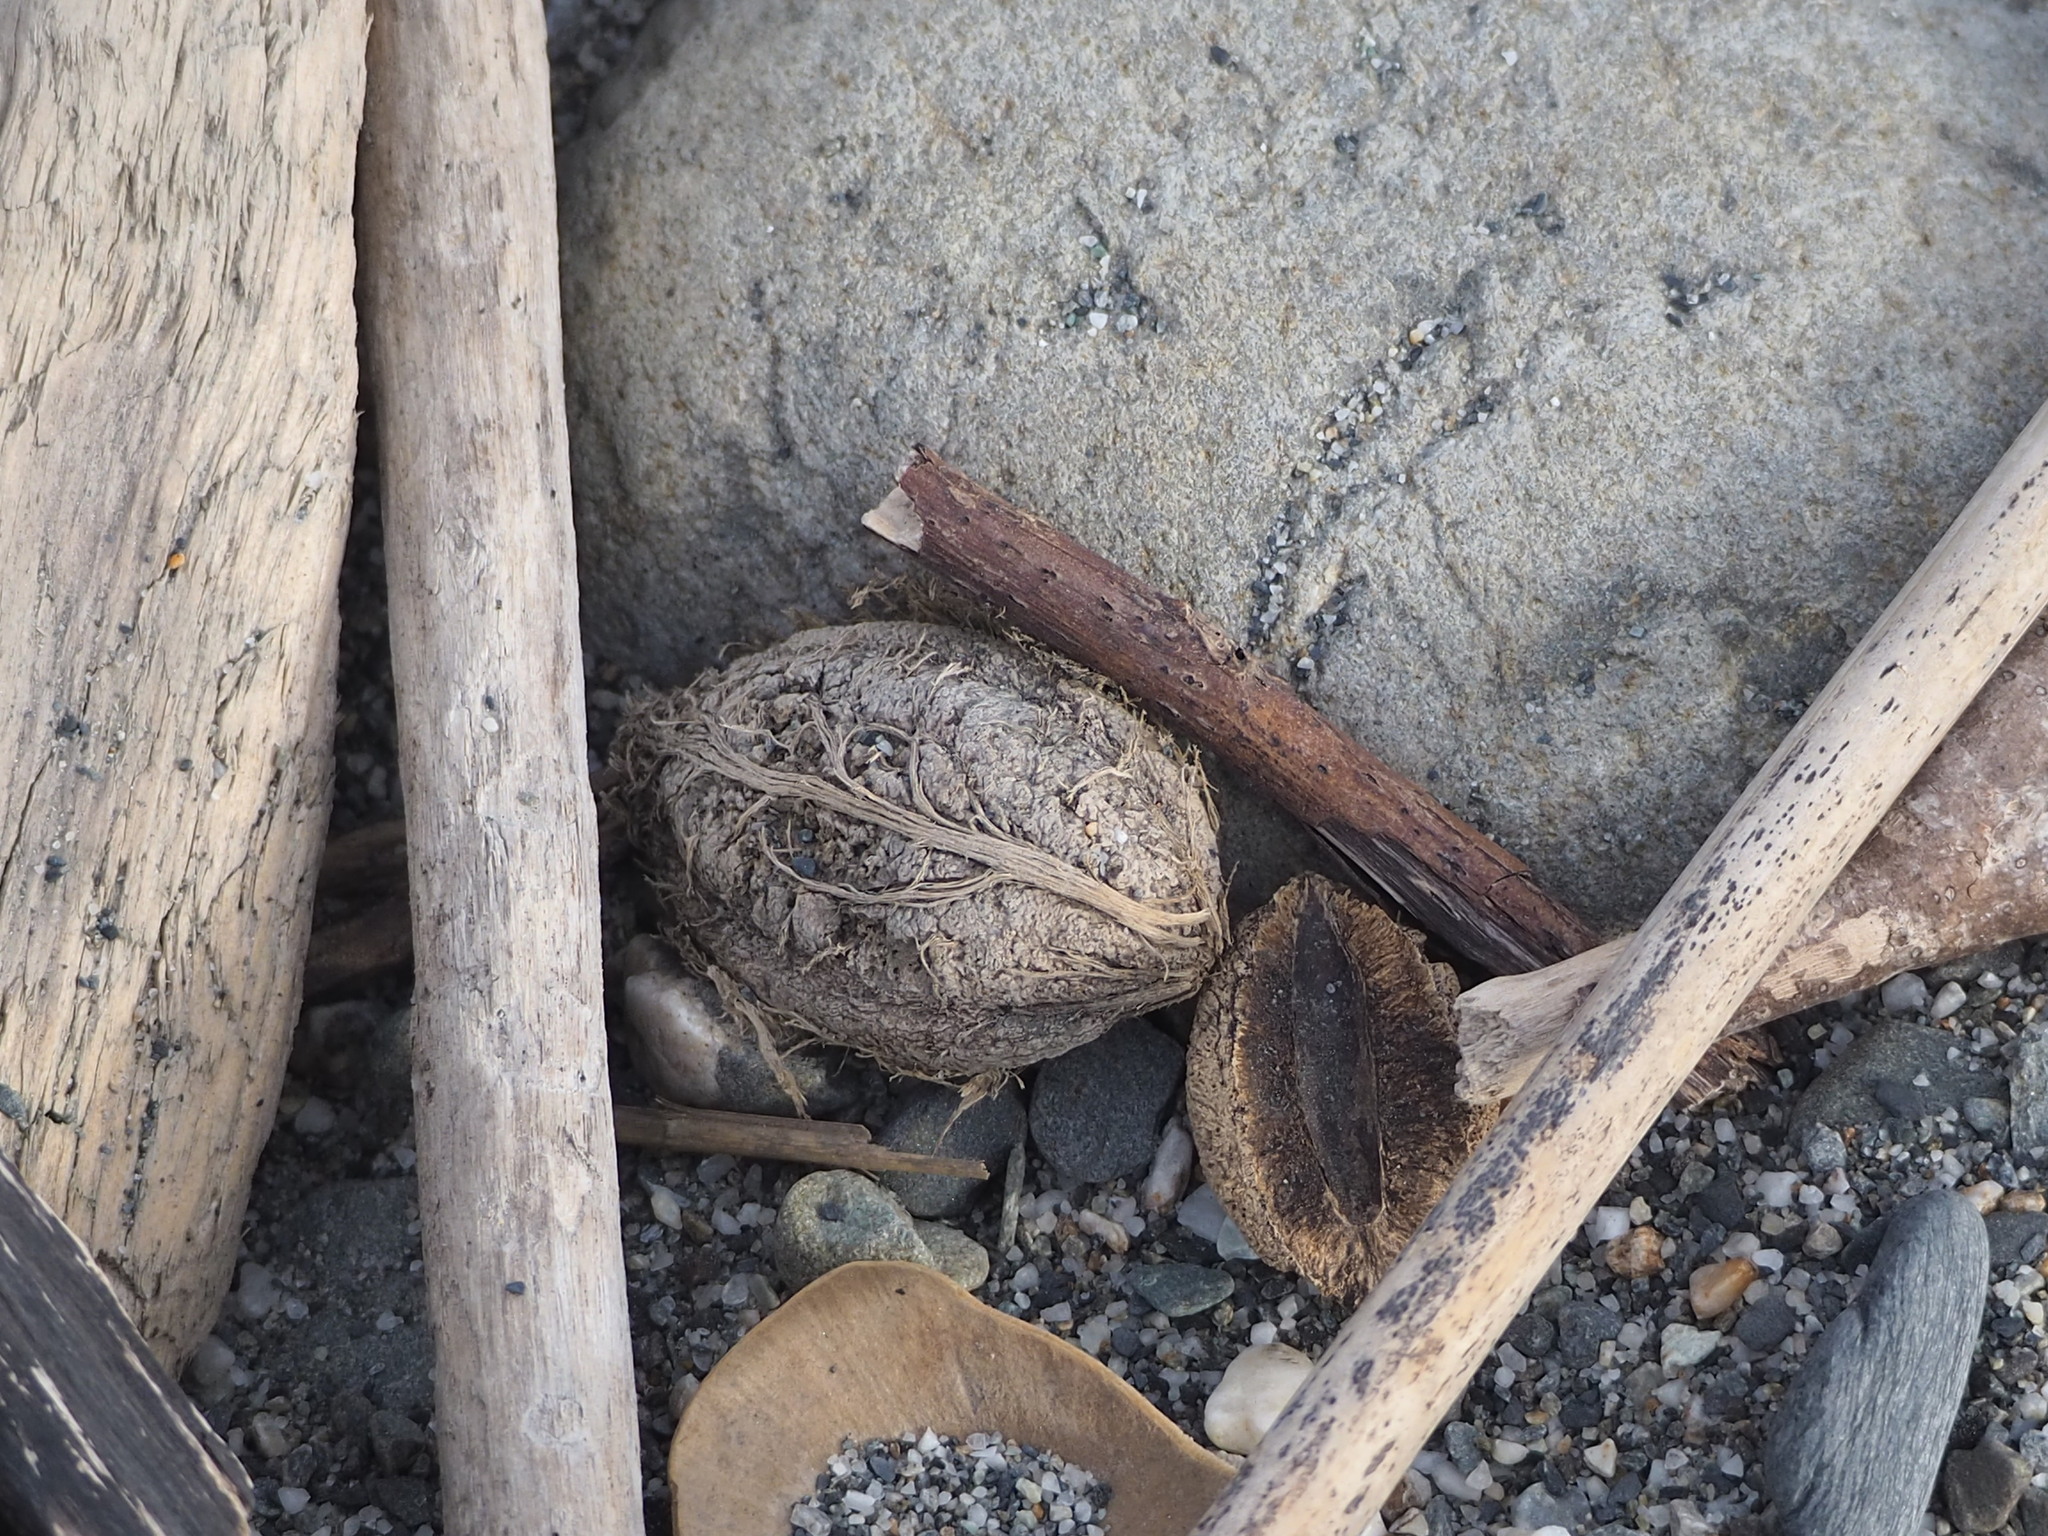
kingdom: Plantae
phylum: Tracheophyta
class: Magnoliopsida
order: Myrtales
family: Combretaceae
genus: Terminalia
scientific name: Terminalia catappa
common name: Tropical almond
